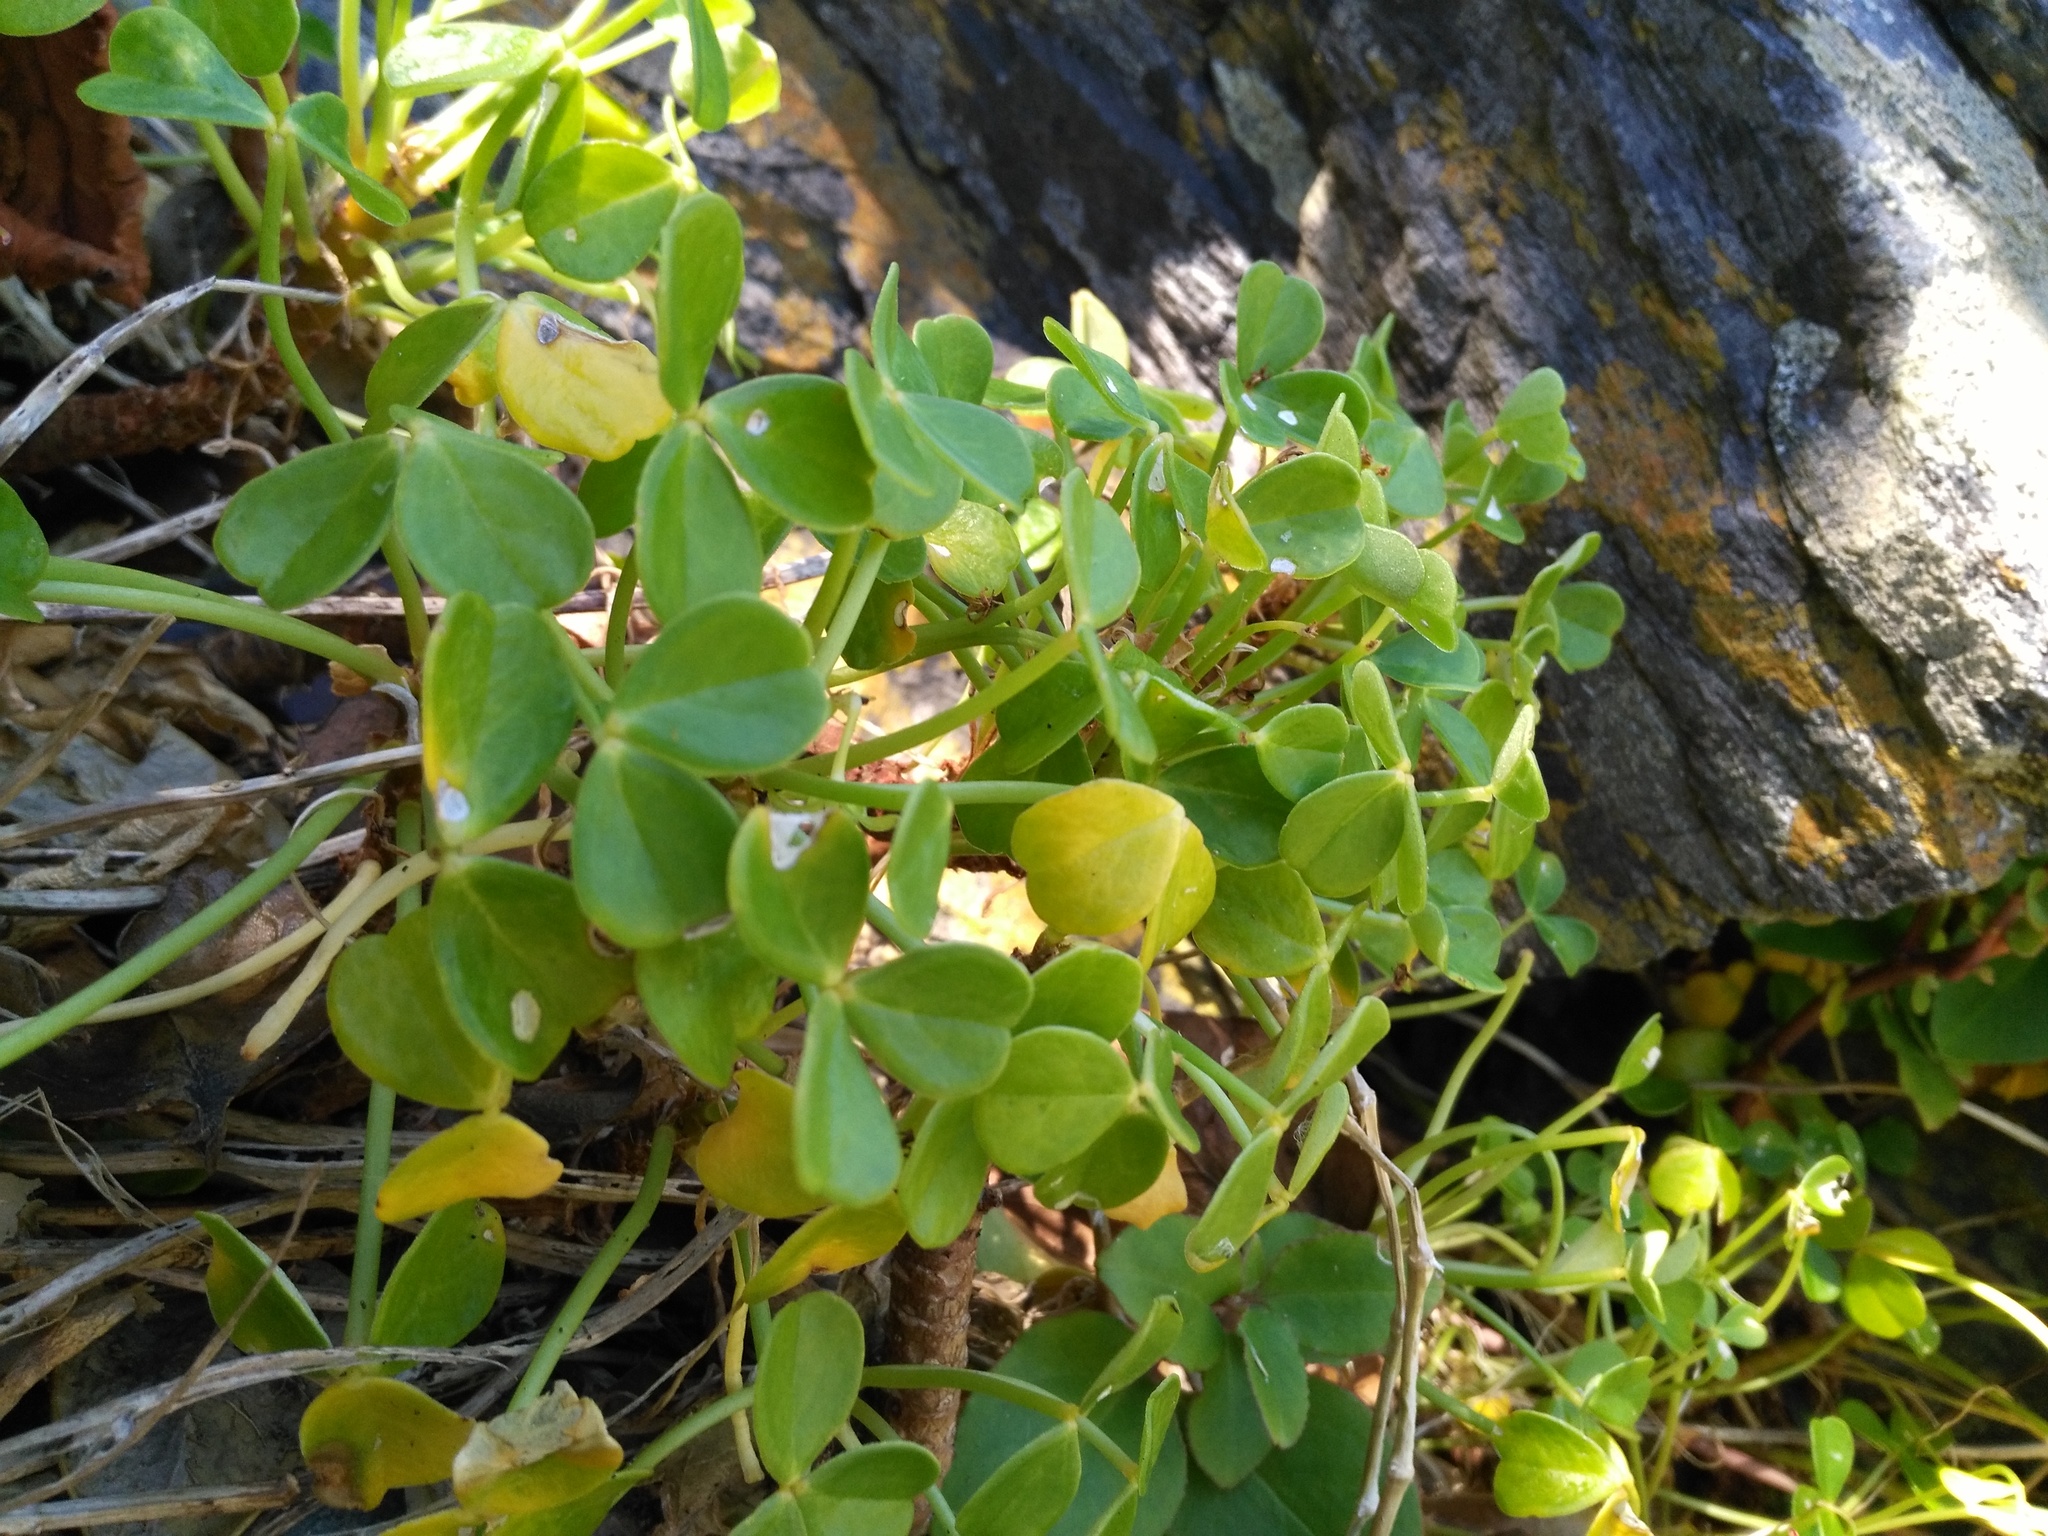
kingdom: Plantae
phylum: Tracheophyta
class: Magnoliopsida
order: Oxalidales
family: Oxalidaceae
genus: Oxalis
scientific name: Oxalis megalorrhiza
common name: Fleshy yellow-sorrel
